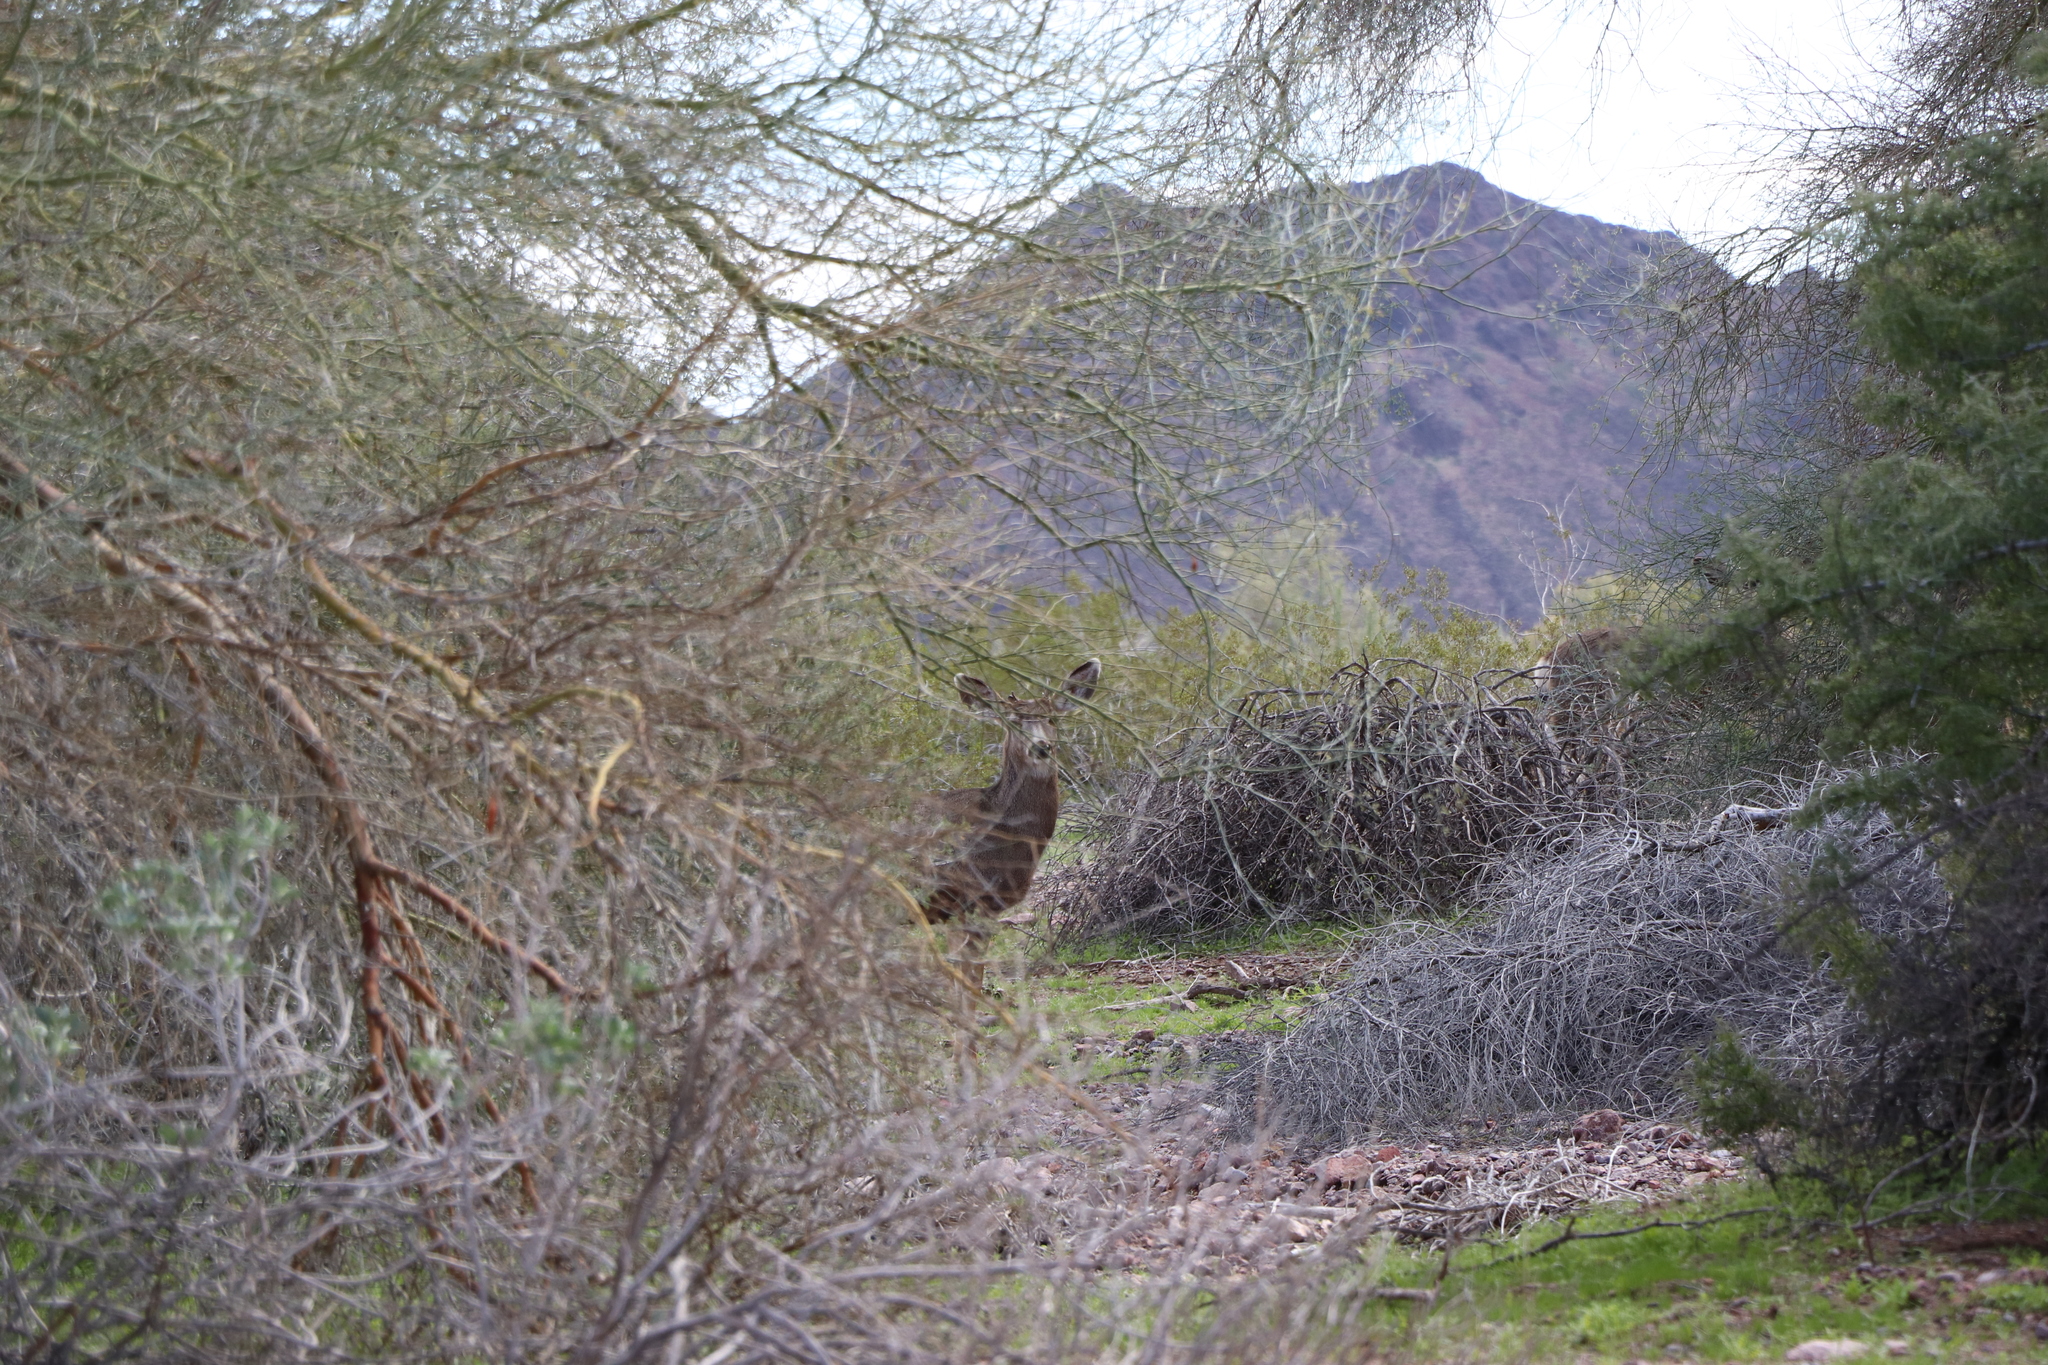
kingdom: Animalia
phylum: Chordata
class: Mammalia
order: Artiodactyla
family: Cervidae
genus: Odocoileus
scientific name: Odocoileus hemionus
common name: Mule deer
